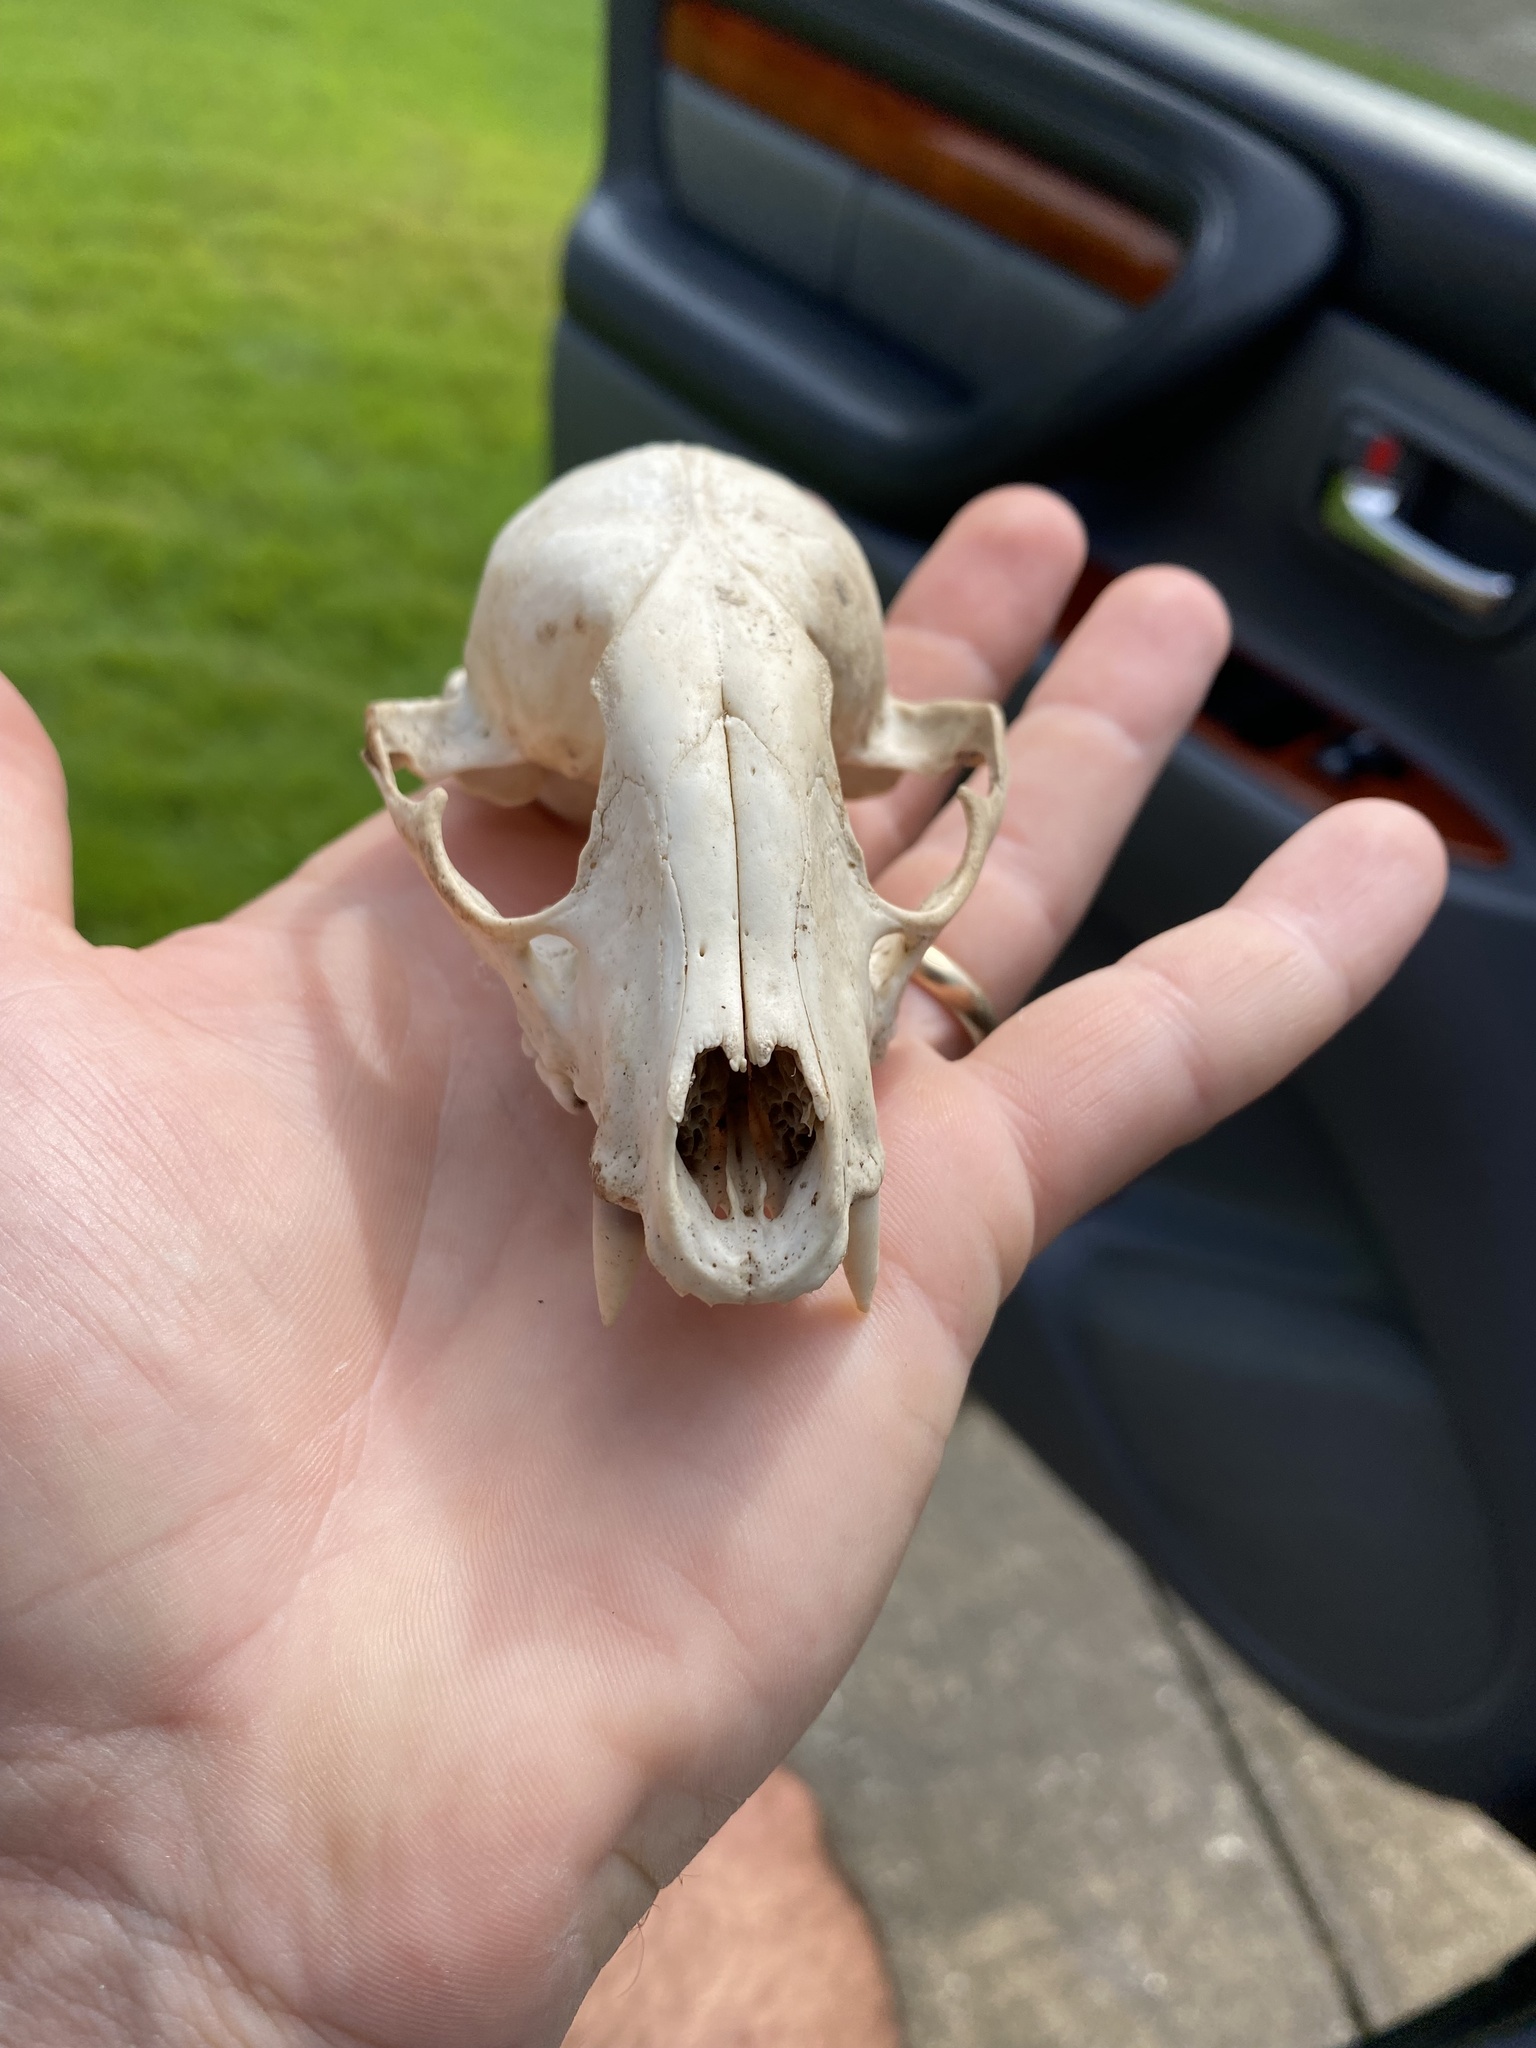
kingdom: Animalia
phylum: Chordata
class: Mammalia
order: Carnivora
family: Procyonidae
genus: Procyon
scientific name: Procyon lotor
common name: Raccoon
